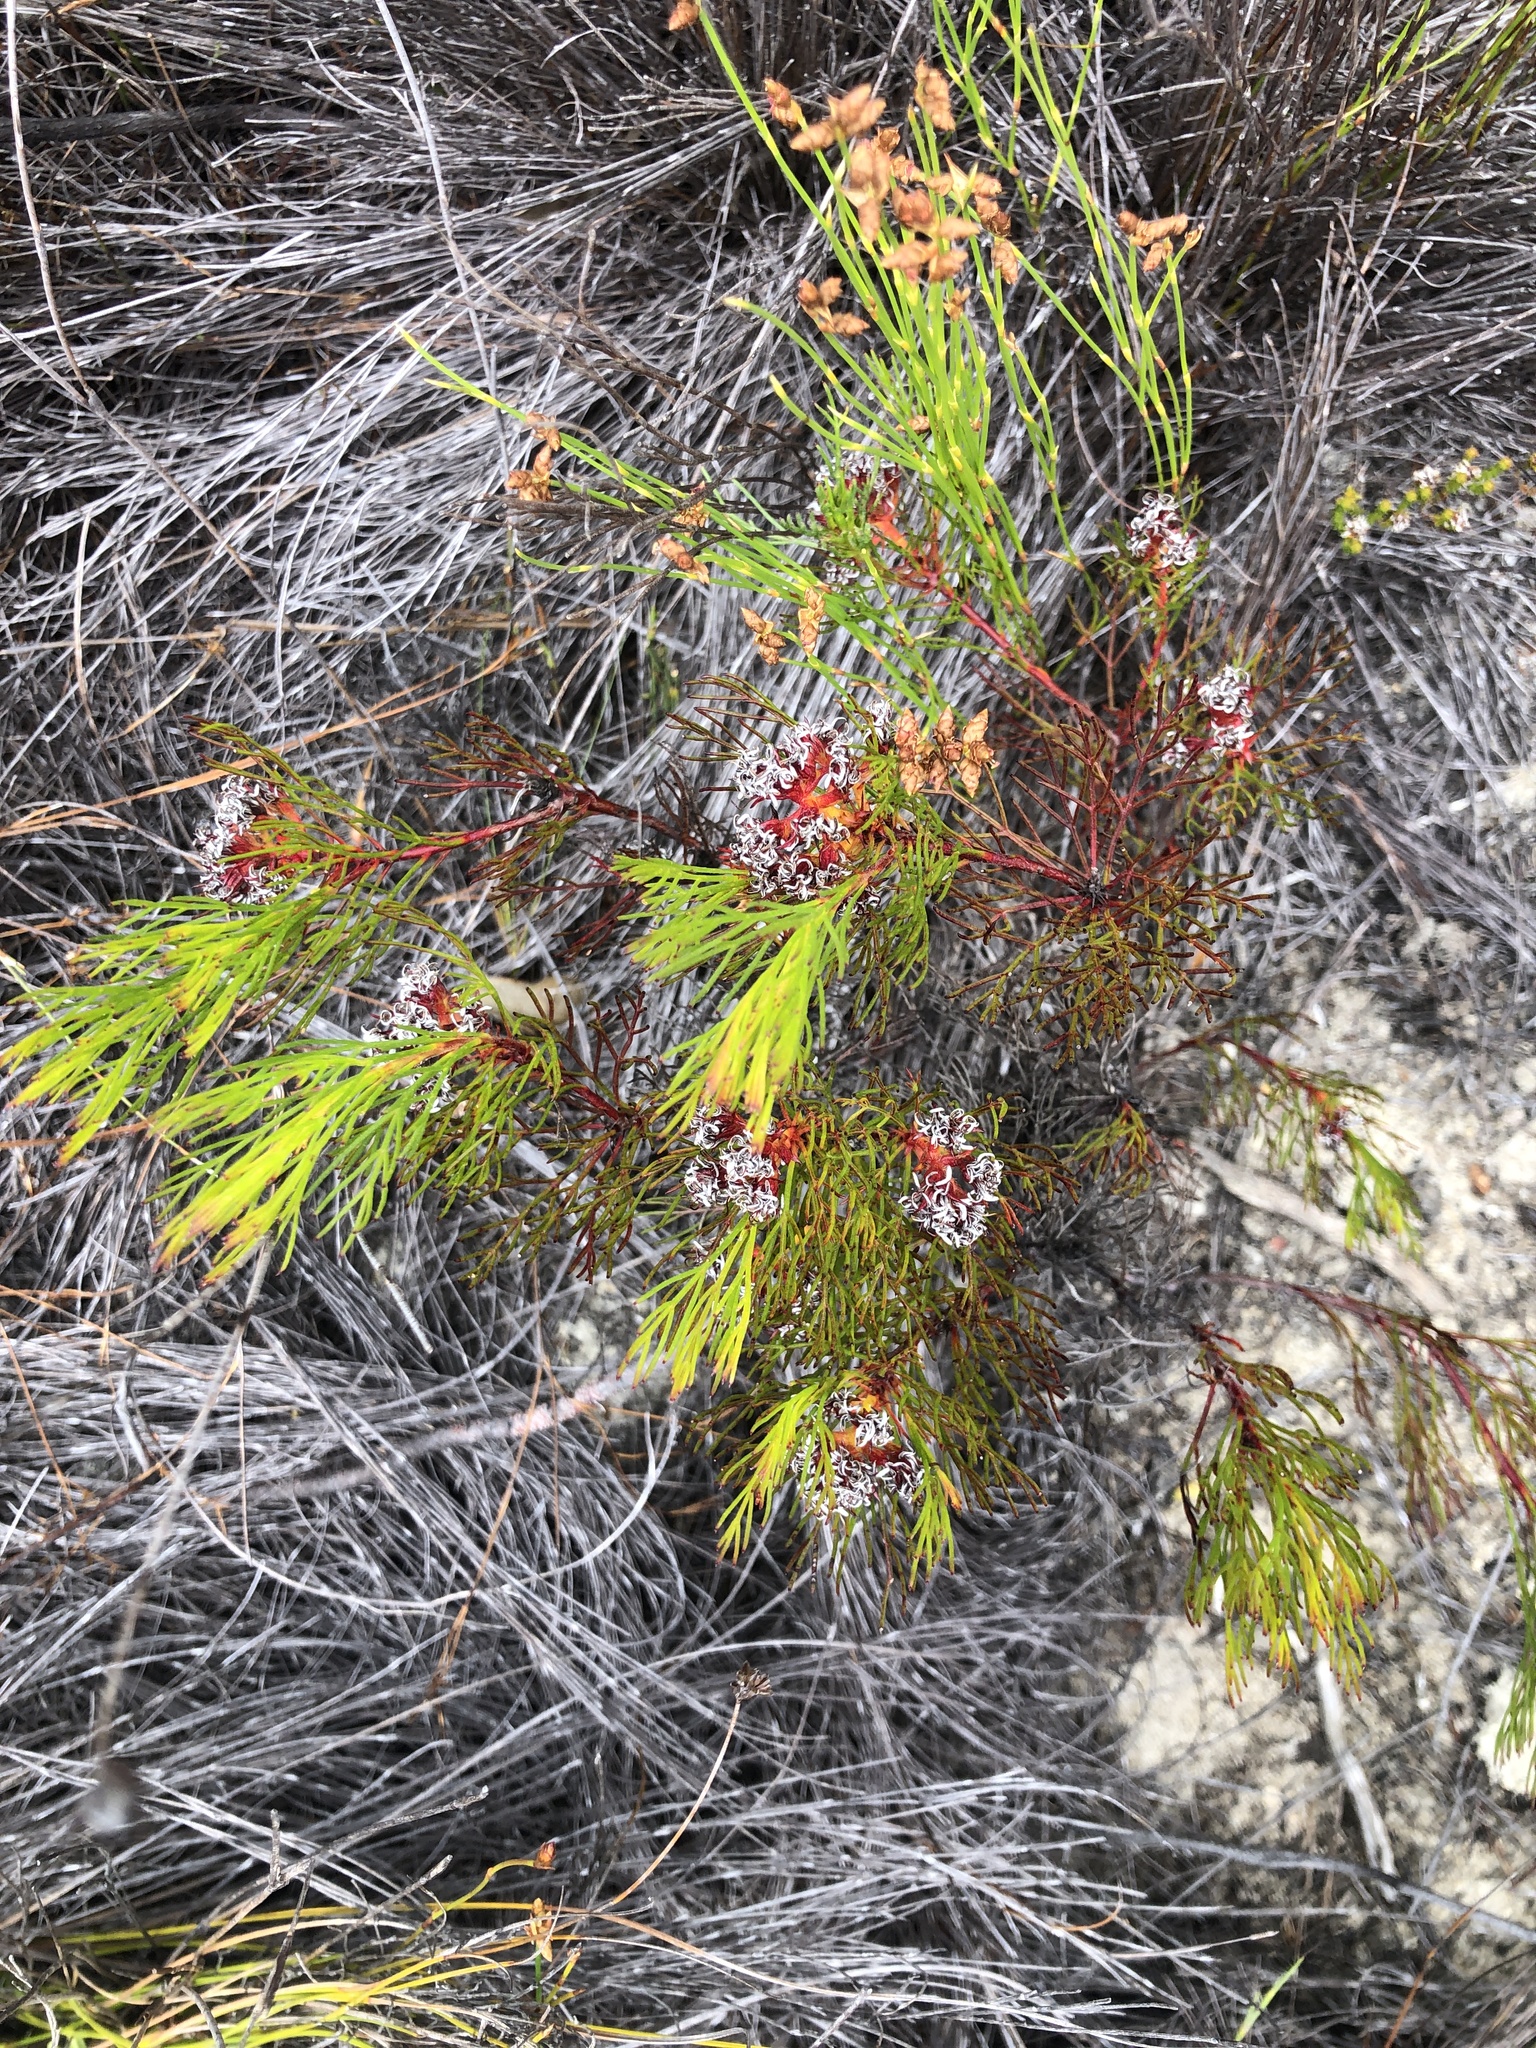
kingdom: Plantae
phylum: Tracheophyta
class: Magnoliopsida
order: Proteales
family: Proteaceae
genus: Serruria
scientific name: Serruria nervosa
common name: Fluted spiderhead
